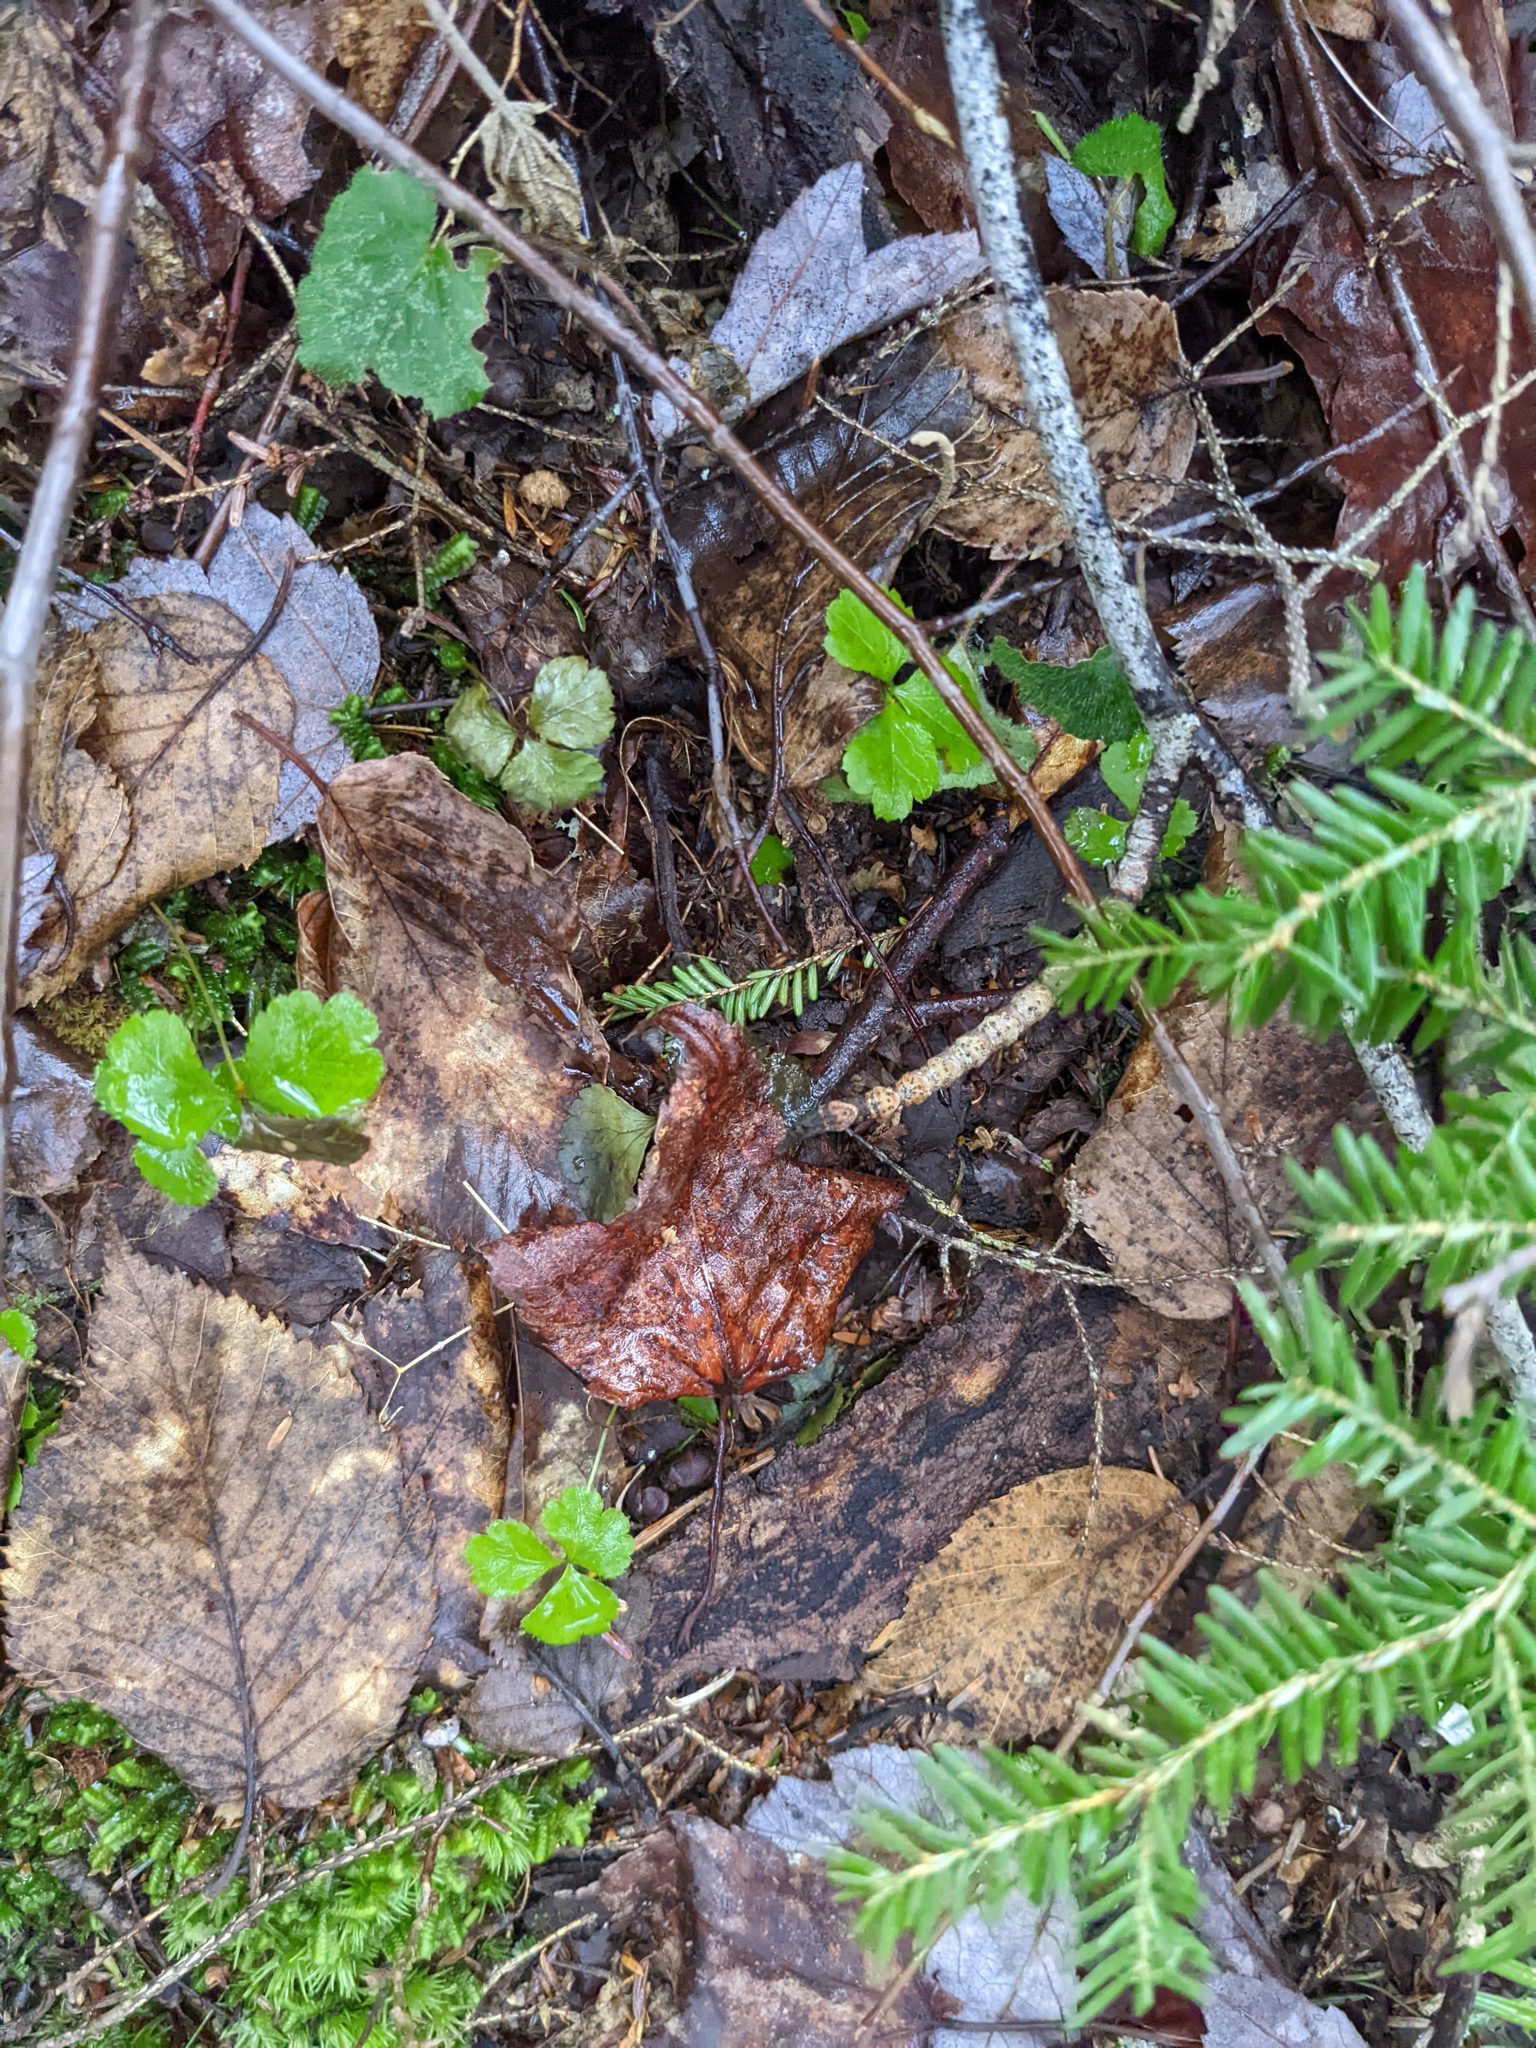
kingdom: Plantae
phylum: Tracheophyta
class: Magnoliopsida
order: Ranunculales
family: Ranunculaceae
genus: Coptis
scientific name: Coptis trifolia
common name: Canker-root
